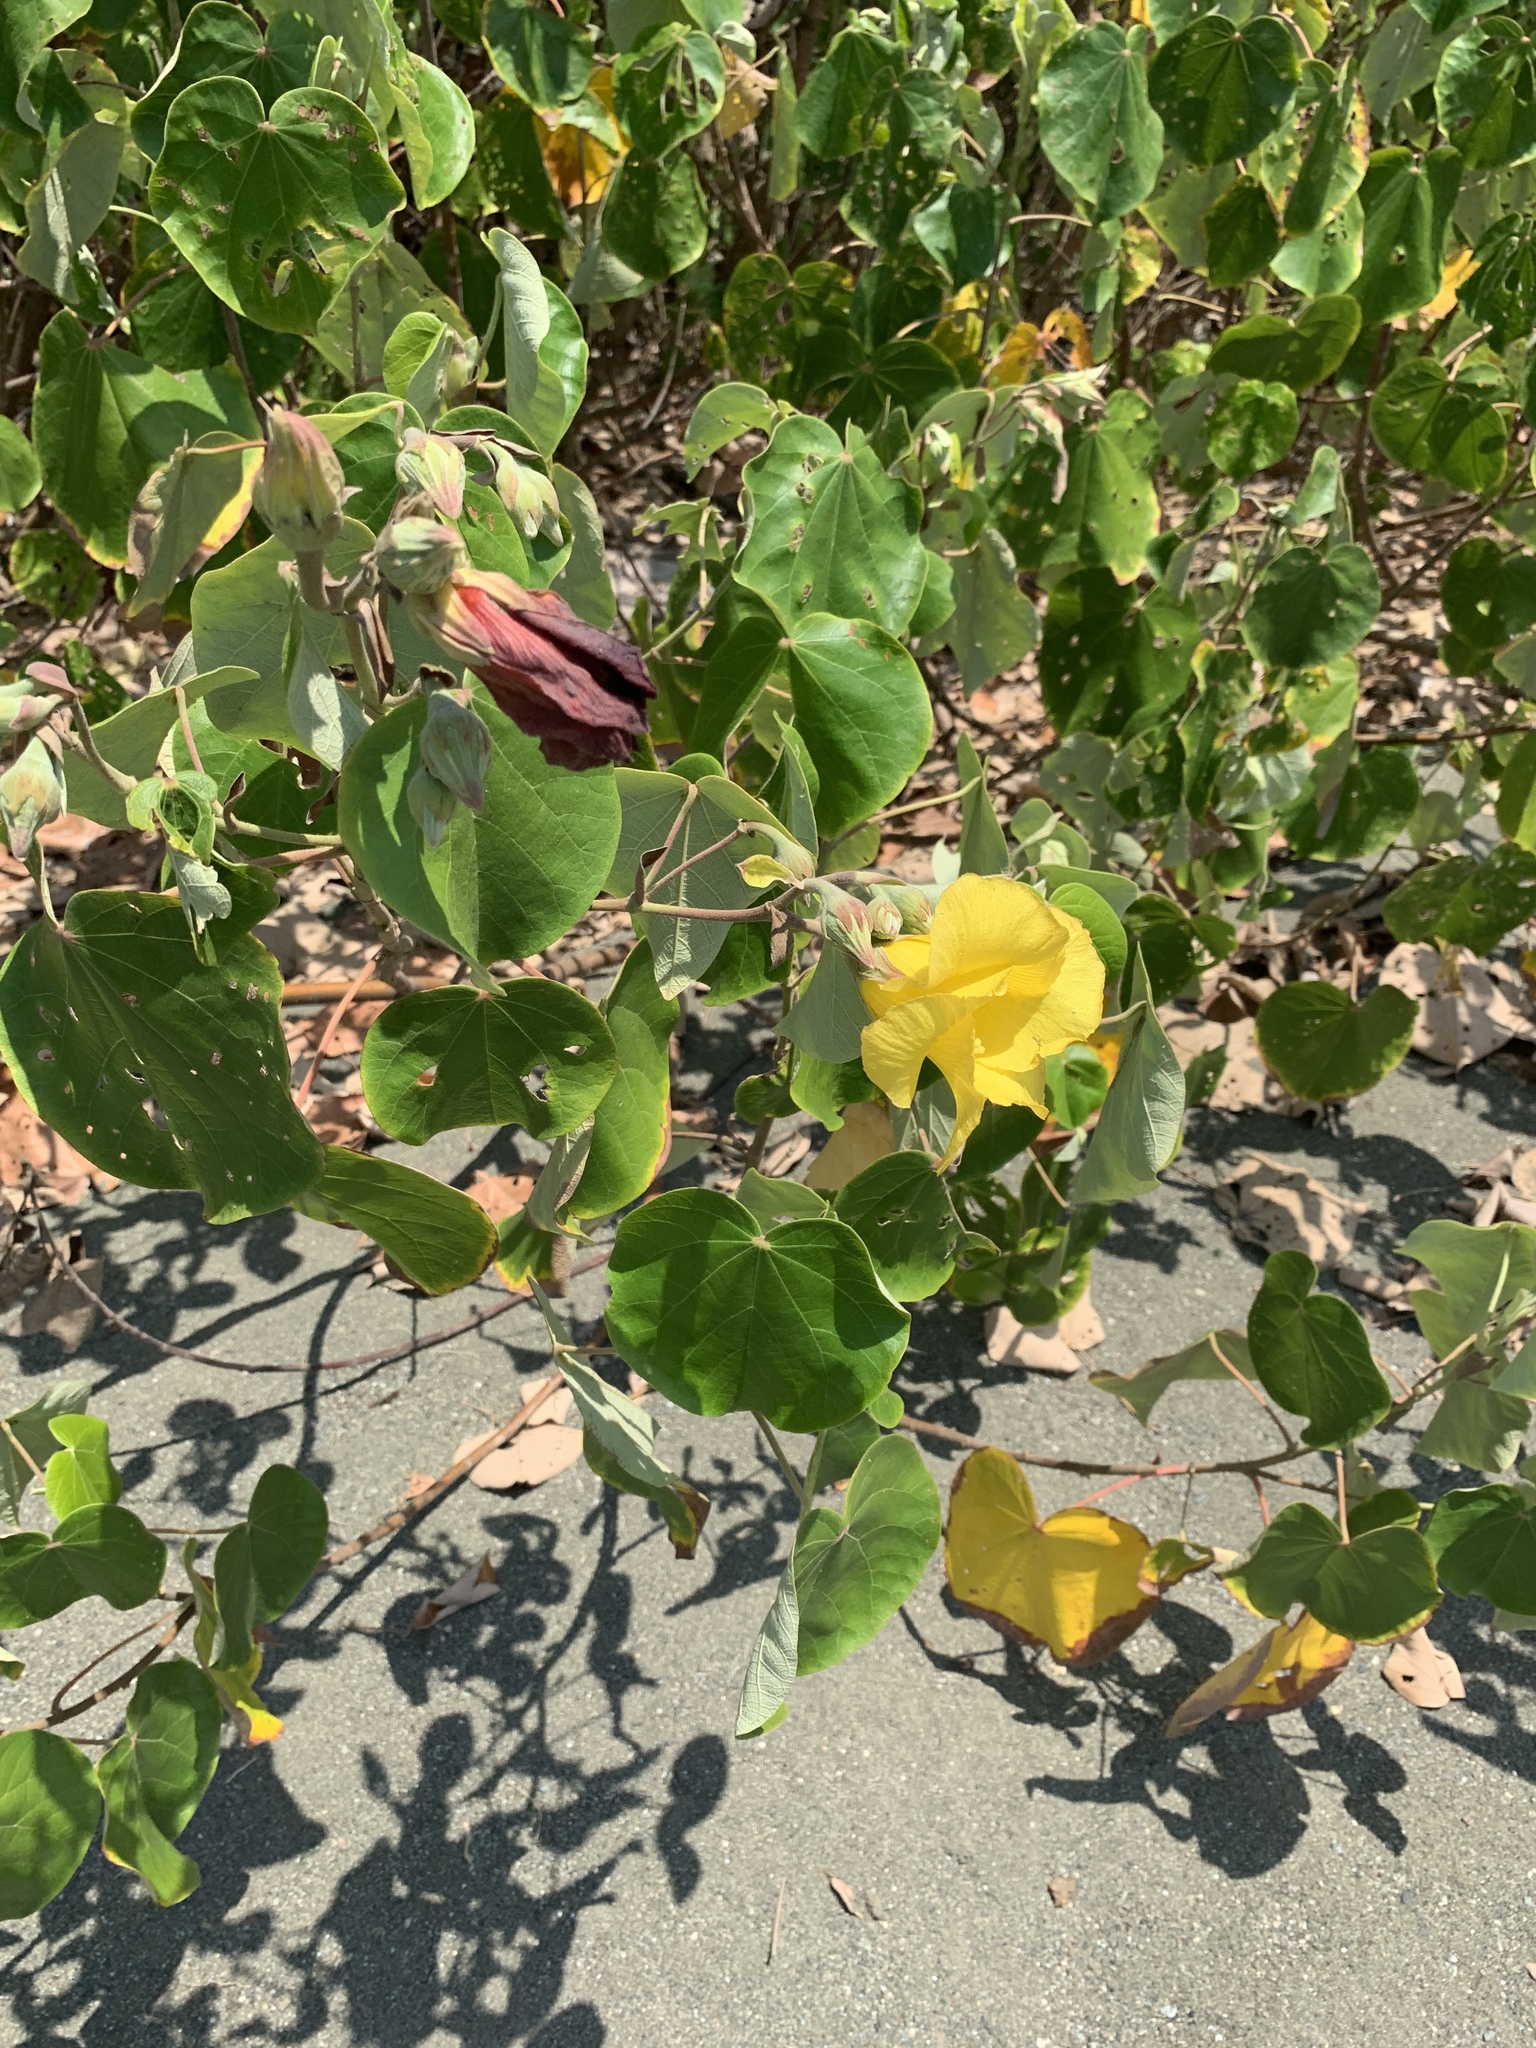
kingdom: Plantae
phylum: Tracheophyta
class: Magnoliopsida
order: Malvales
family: Malvaceae
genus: Talipariti
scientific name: Talipariti tiliaceum
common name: Sea hibiscus
